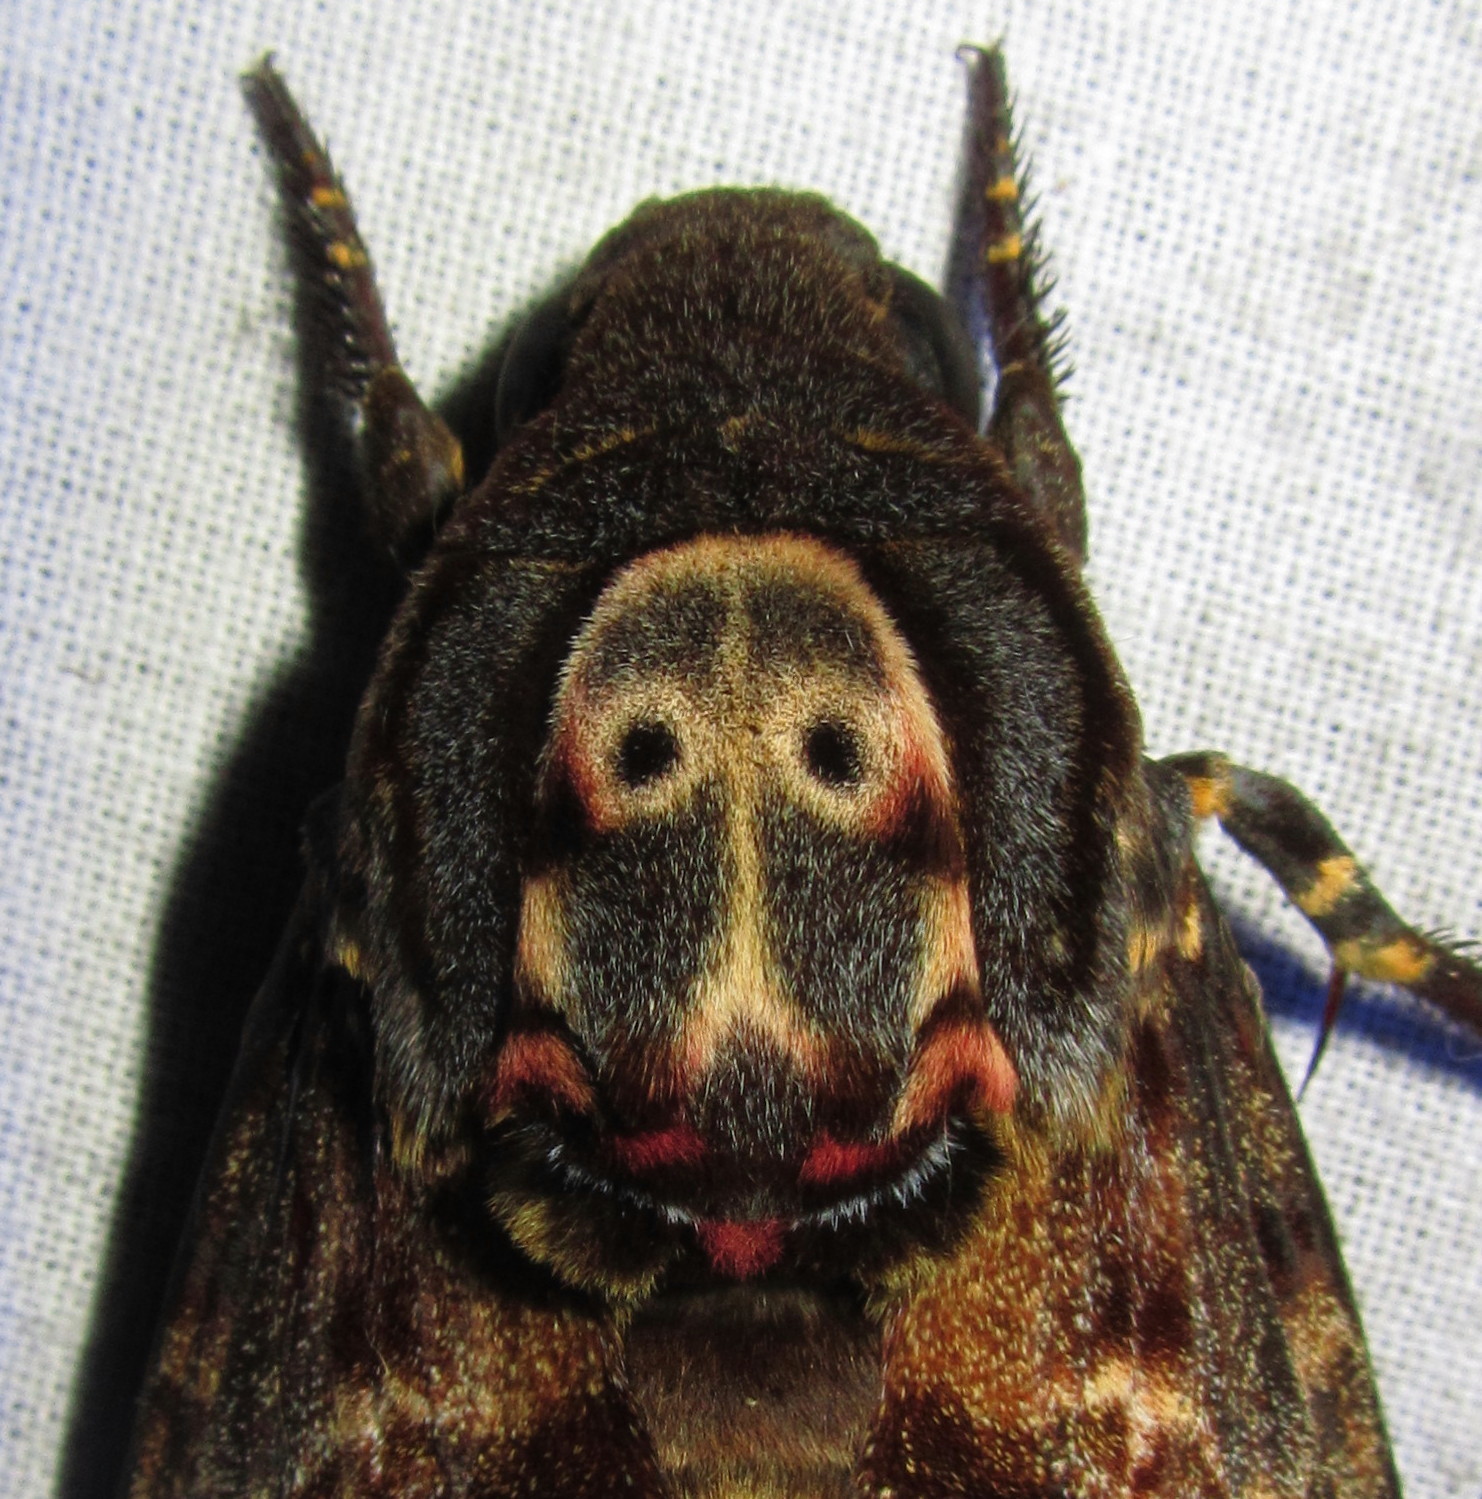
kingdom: Animalia
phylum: Arthropoda
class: Insecta
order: Lepidoptera
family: Sphingidae
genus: Acherontia
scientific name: Acherontia lachesis
